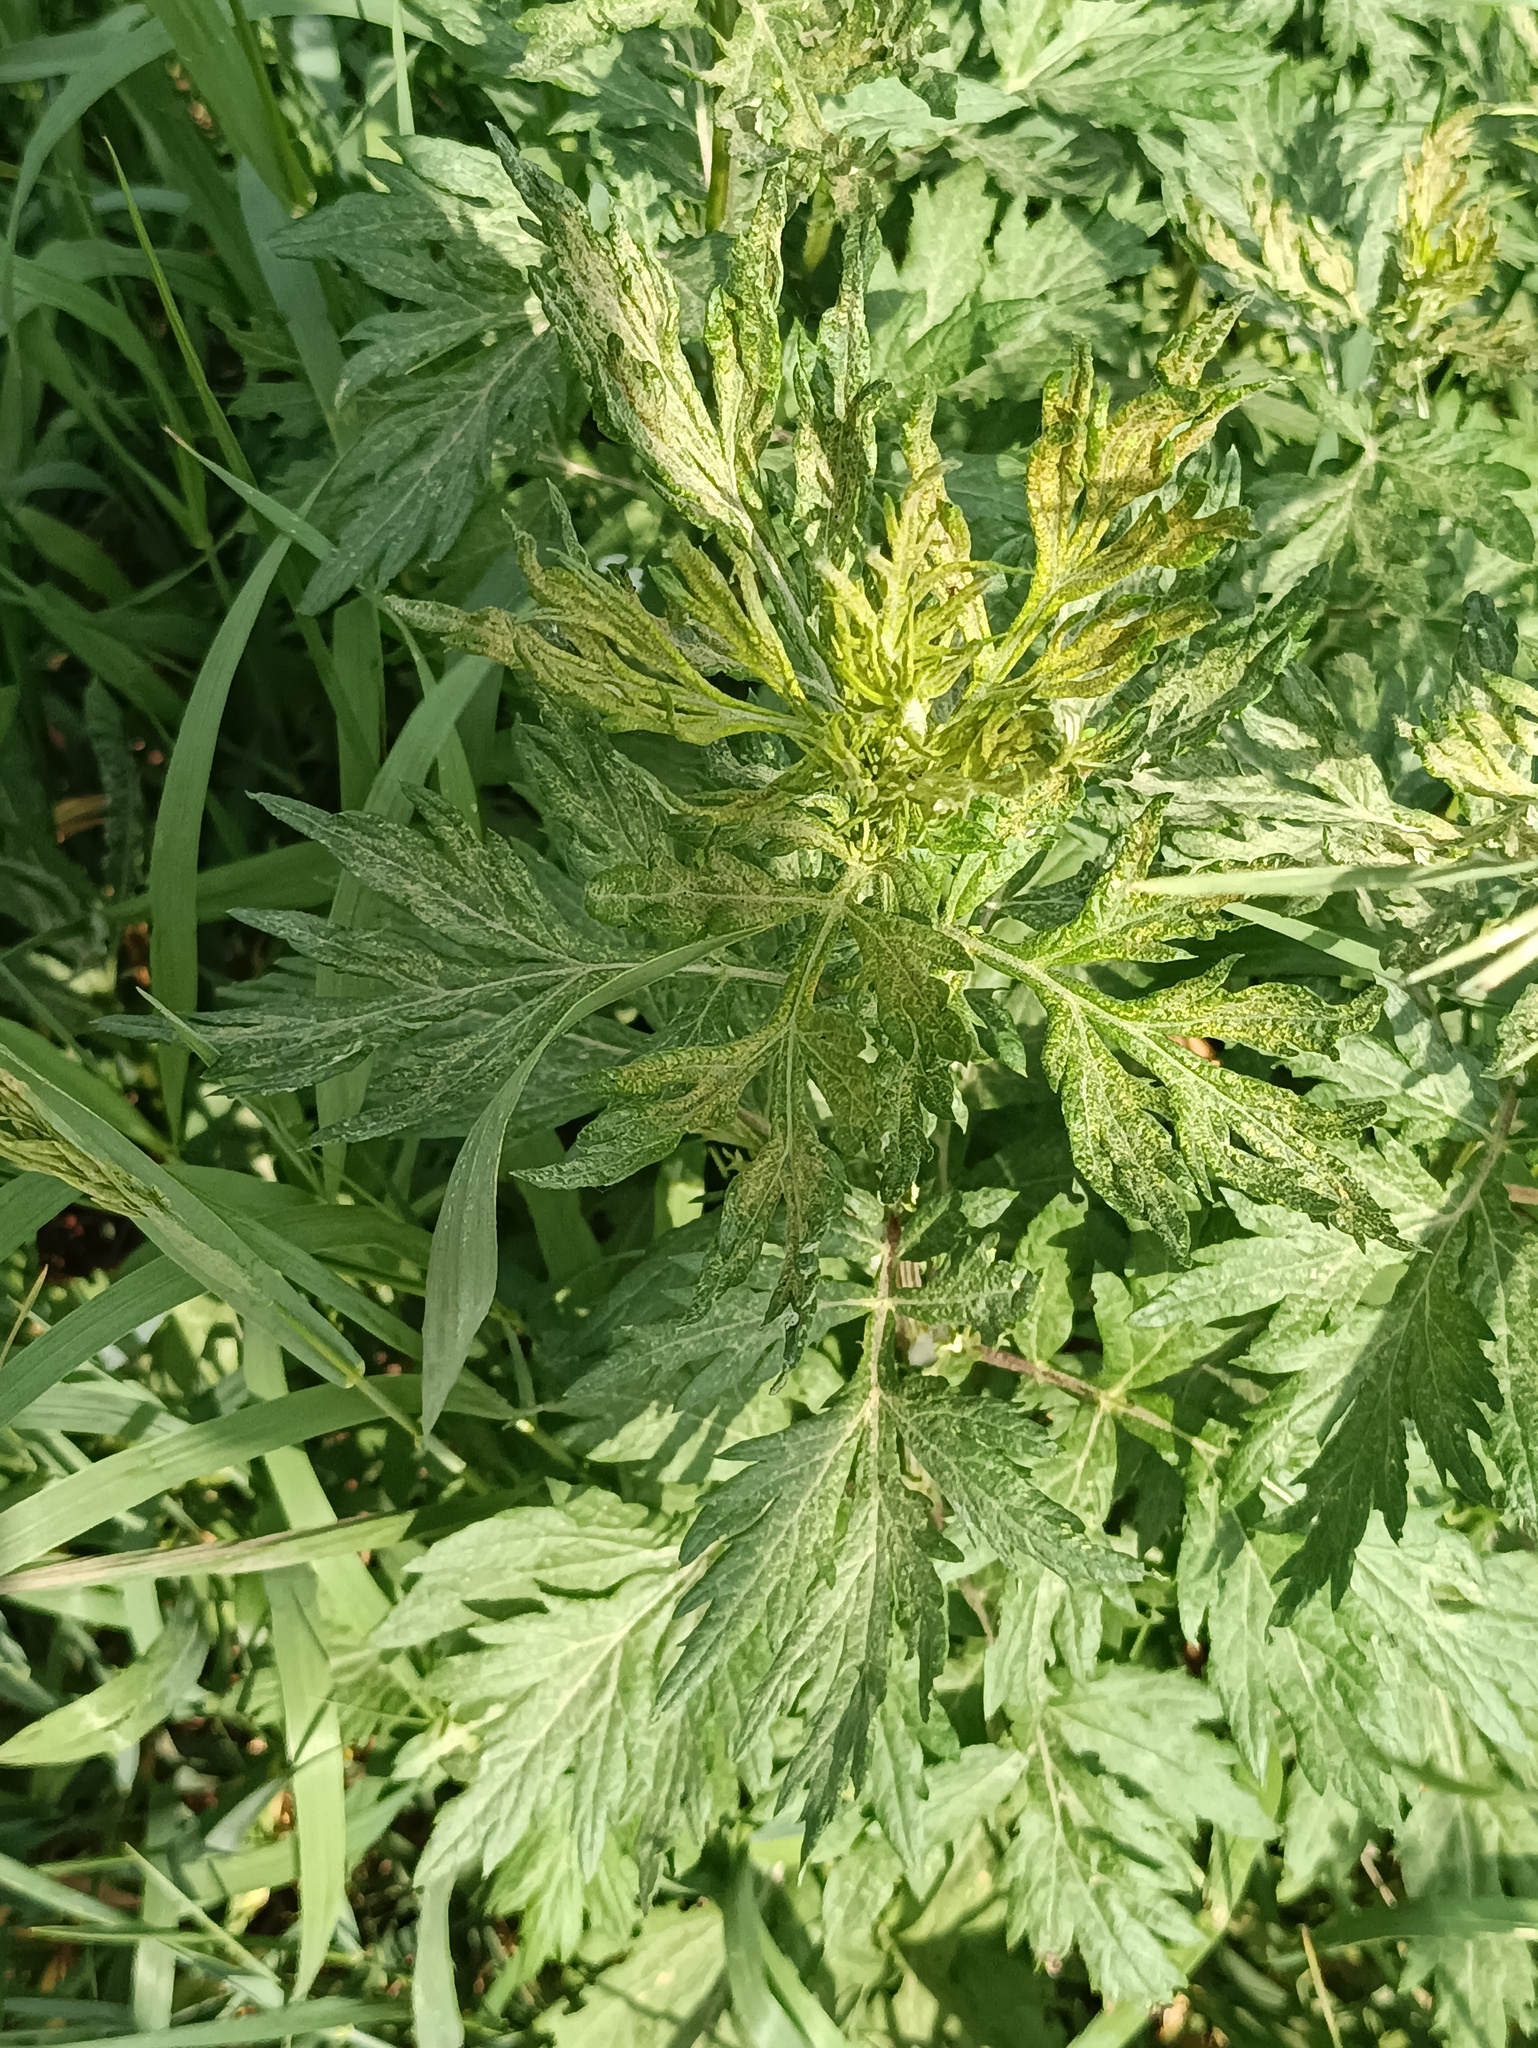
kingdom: Plantae
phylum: Tracheophyta
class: Magnoliopsida
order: Asterales
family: Asteraceae
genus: Artemisia
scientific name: Artemisia vulgaris
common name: Mugwort
